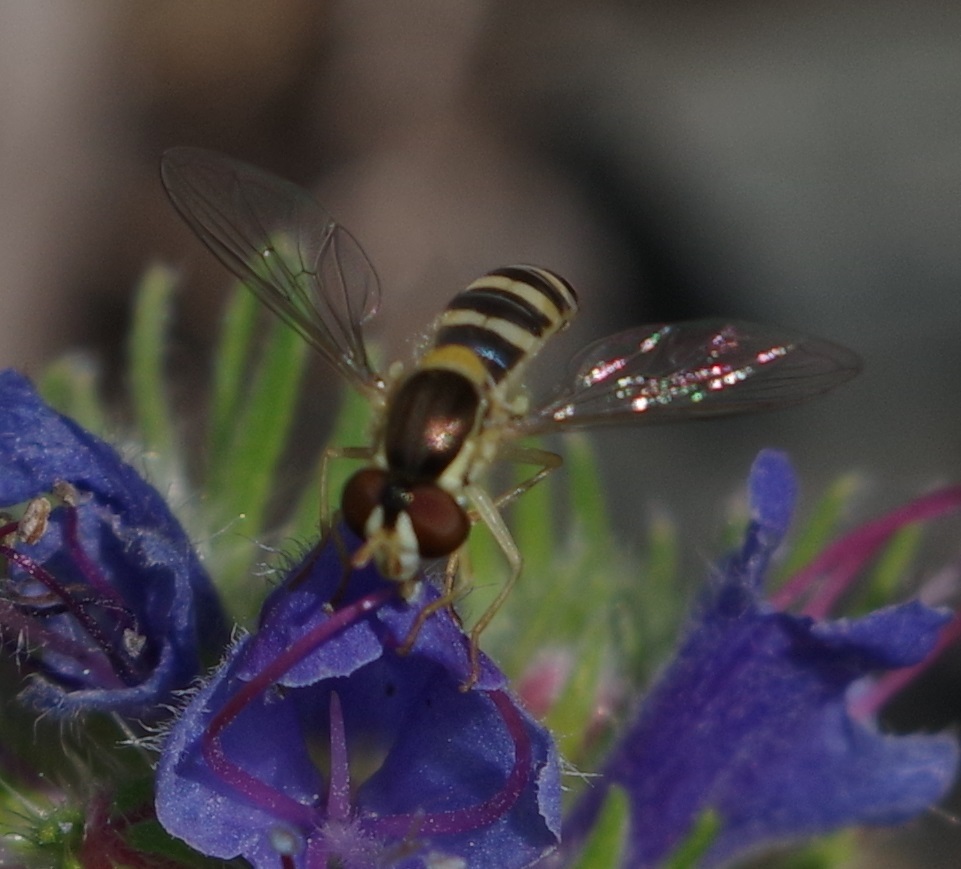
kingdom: Animalia
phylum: Arthropoda
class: Insecta
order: Diptera
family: Syrphidae
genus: Sphaerophoria
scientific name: Sphaerophoria
